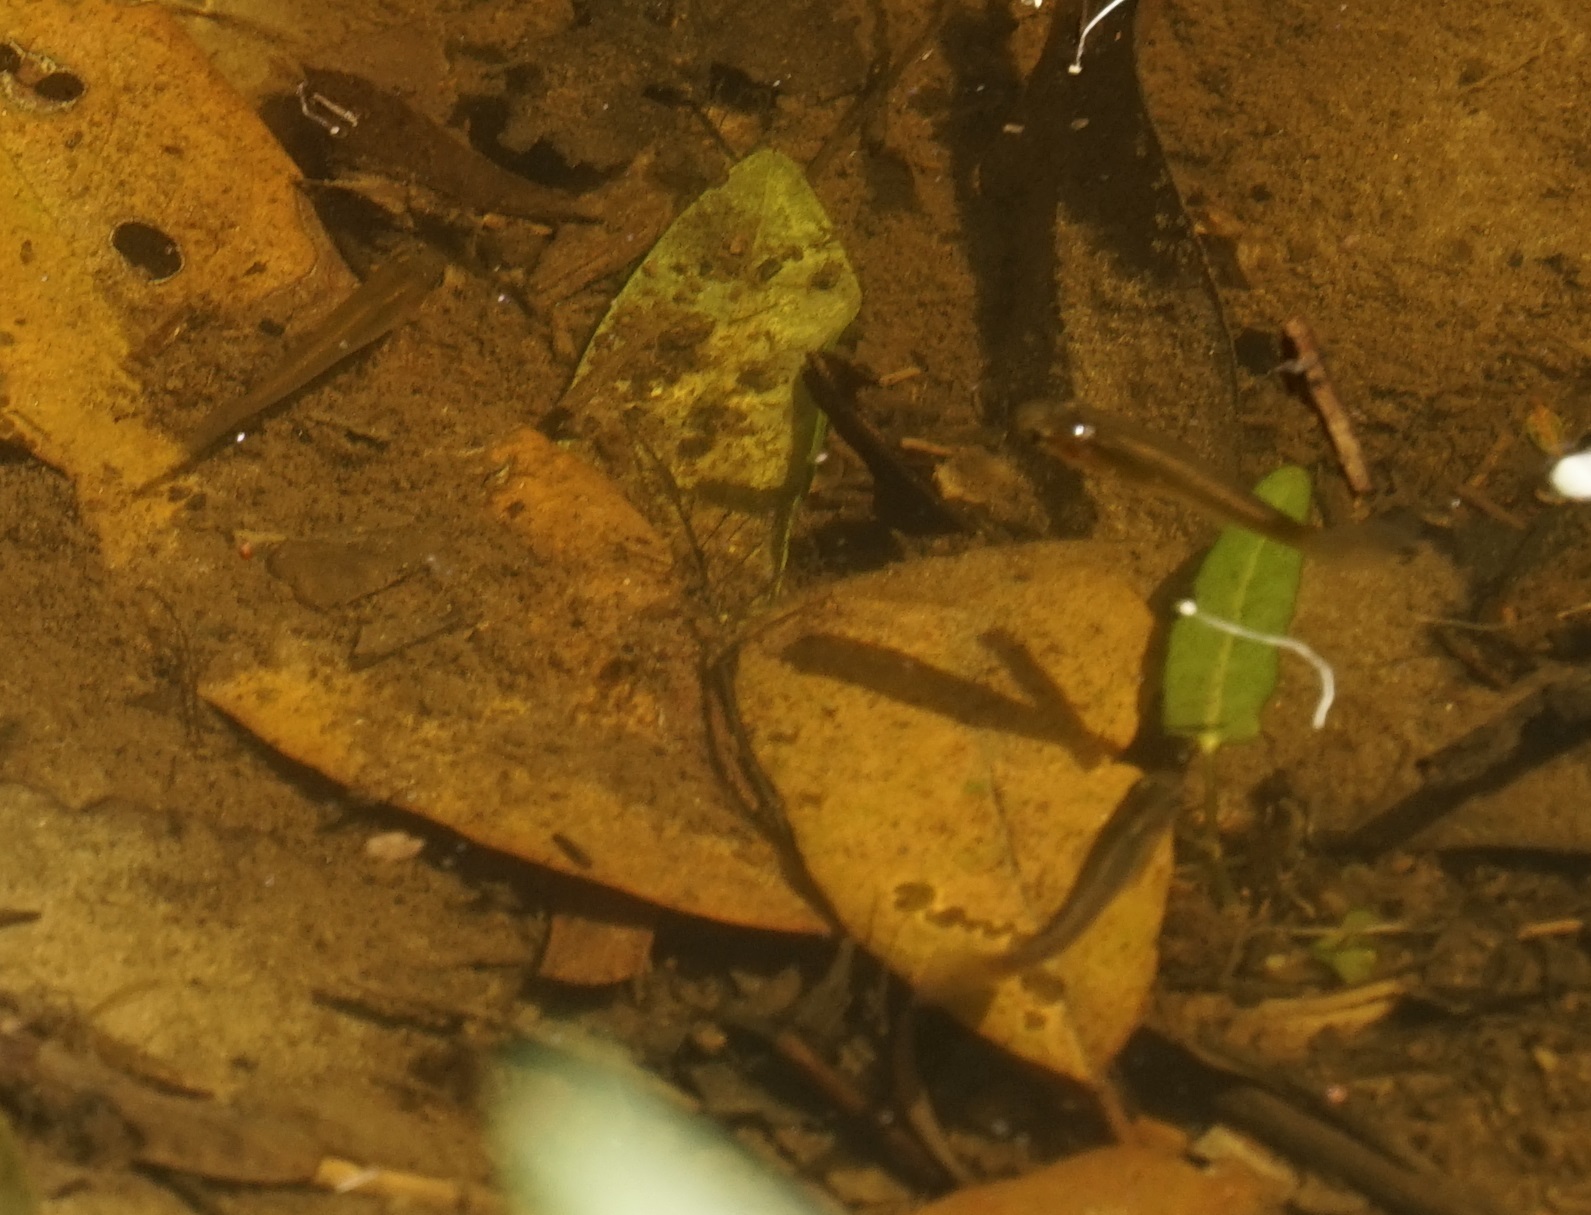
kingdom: Animalia
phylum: Chordata
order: Cyprinodontiformes
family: Poeciliidae
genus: Gambusia
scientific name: Gambusia holbrooki
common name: Eastern mosquitofish
